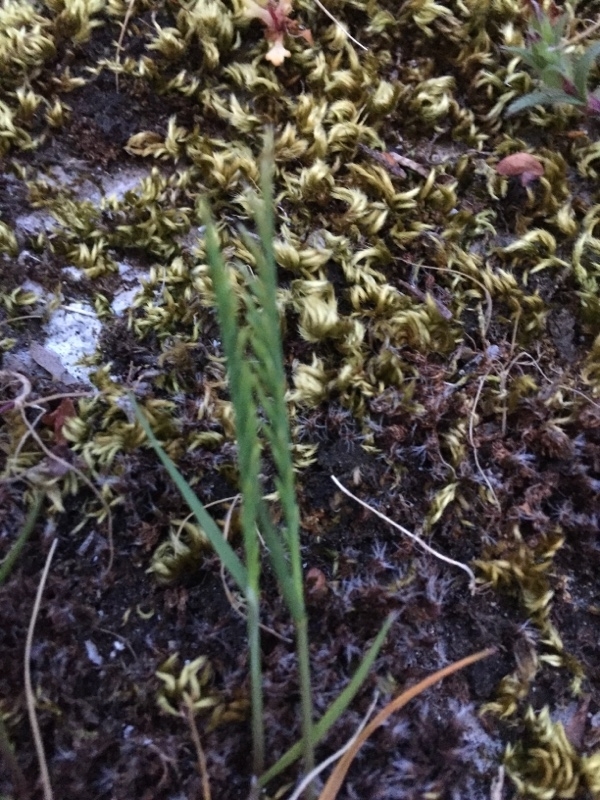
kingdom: Plantae
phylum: Tracheophyta
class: Liliopsida
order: Poales
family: Poaceae
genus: Catapodium
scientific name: Catapodium rigidum
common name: Fern-grass
